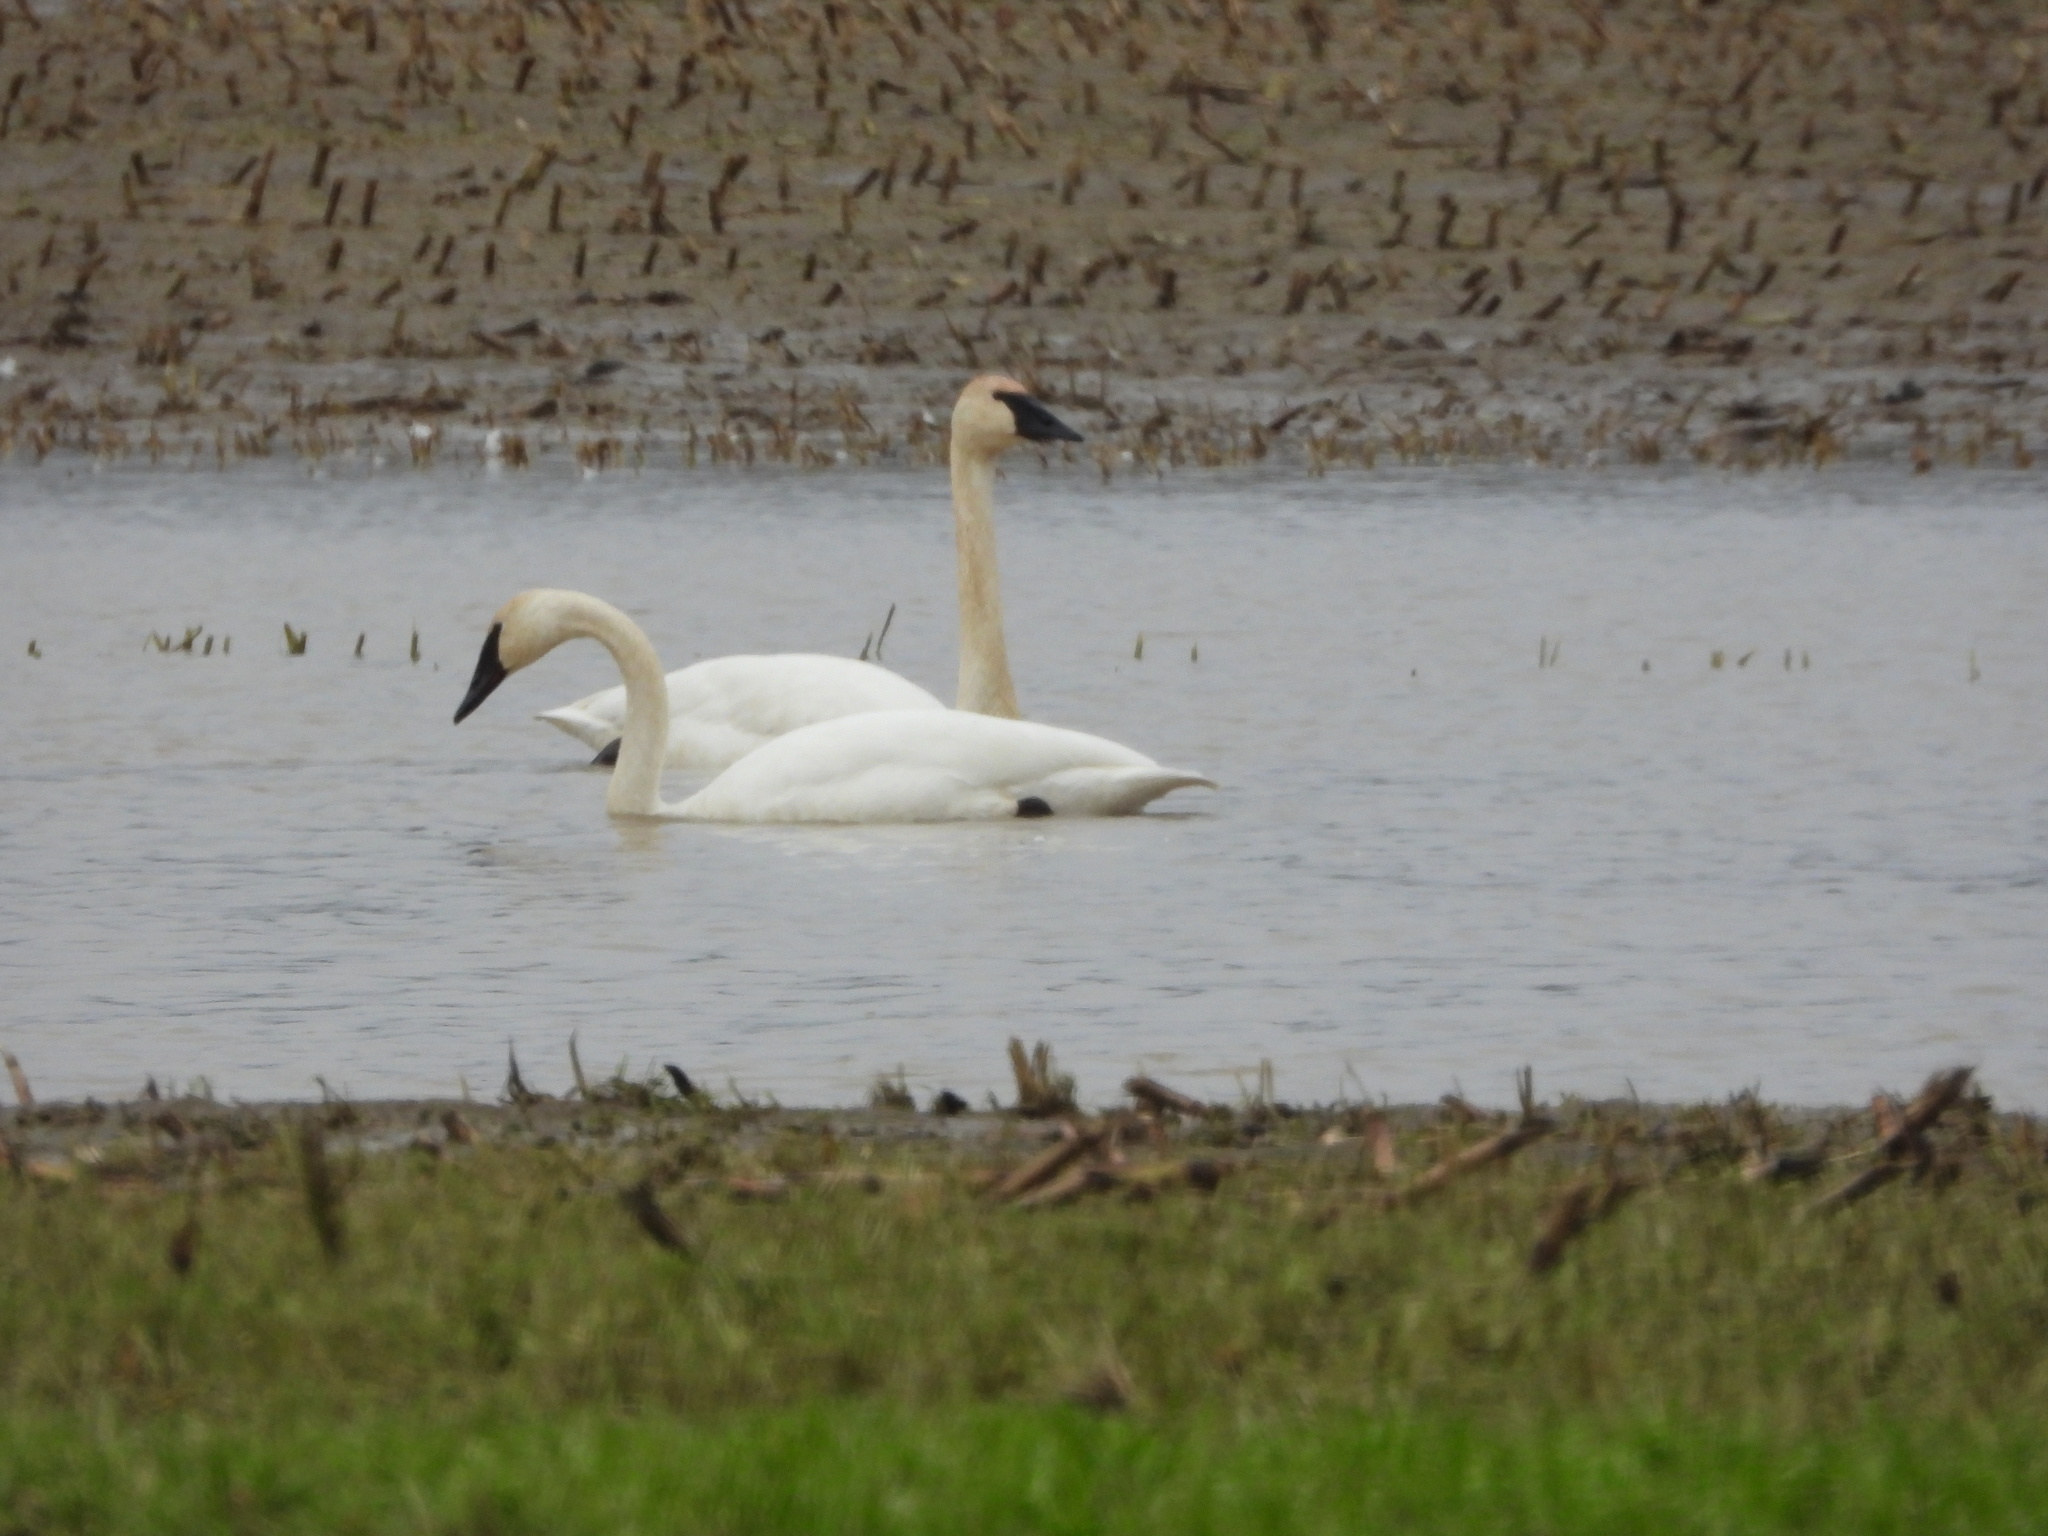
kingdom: Animalia
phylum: Chordata
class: Aves
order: Anseriformes
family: Anatidae
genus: Cygnus
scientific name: Cygnus buccinator
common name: Trumpeter swan
